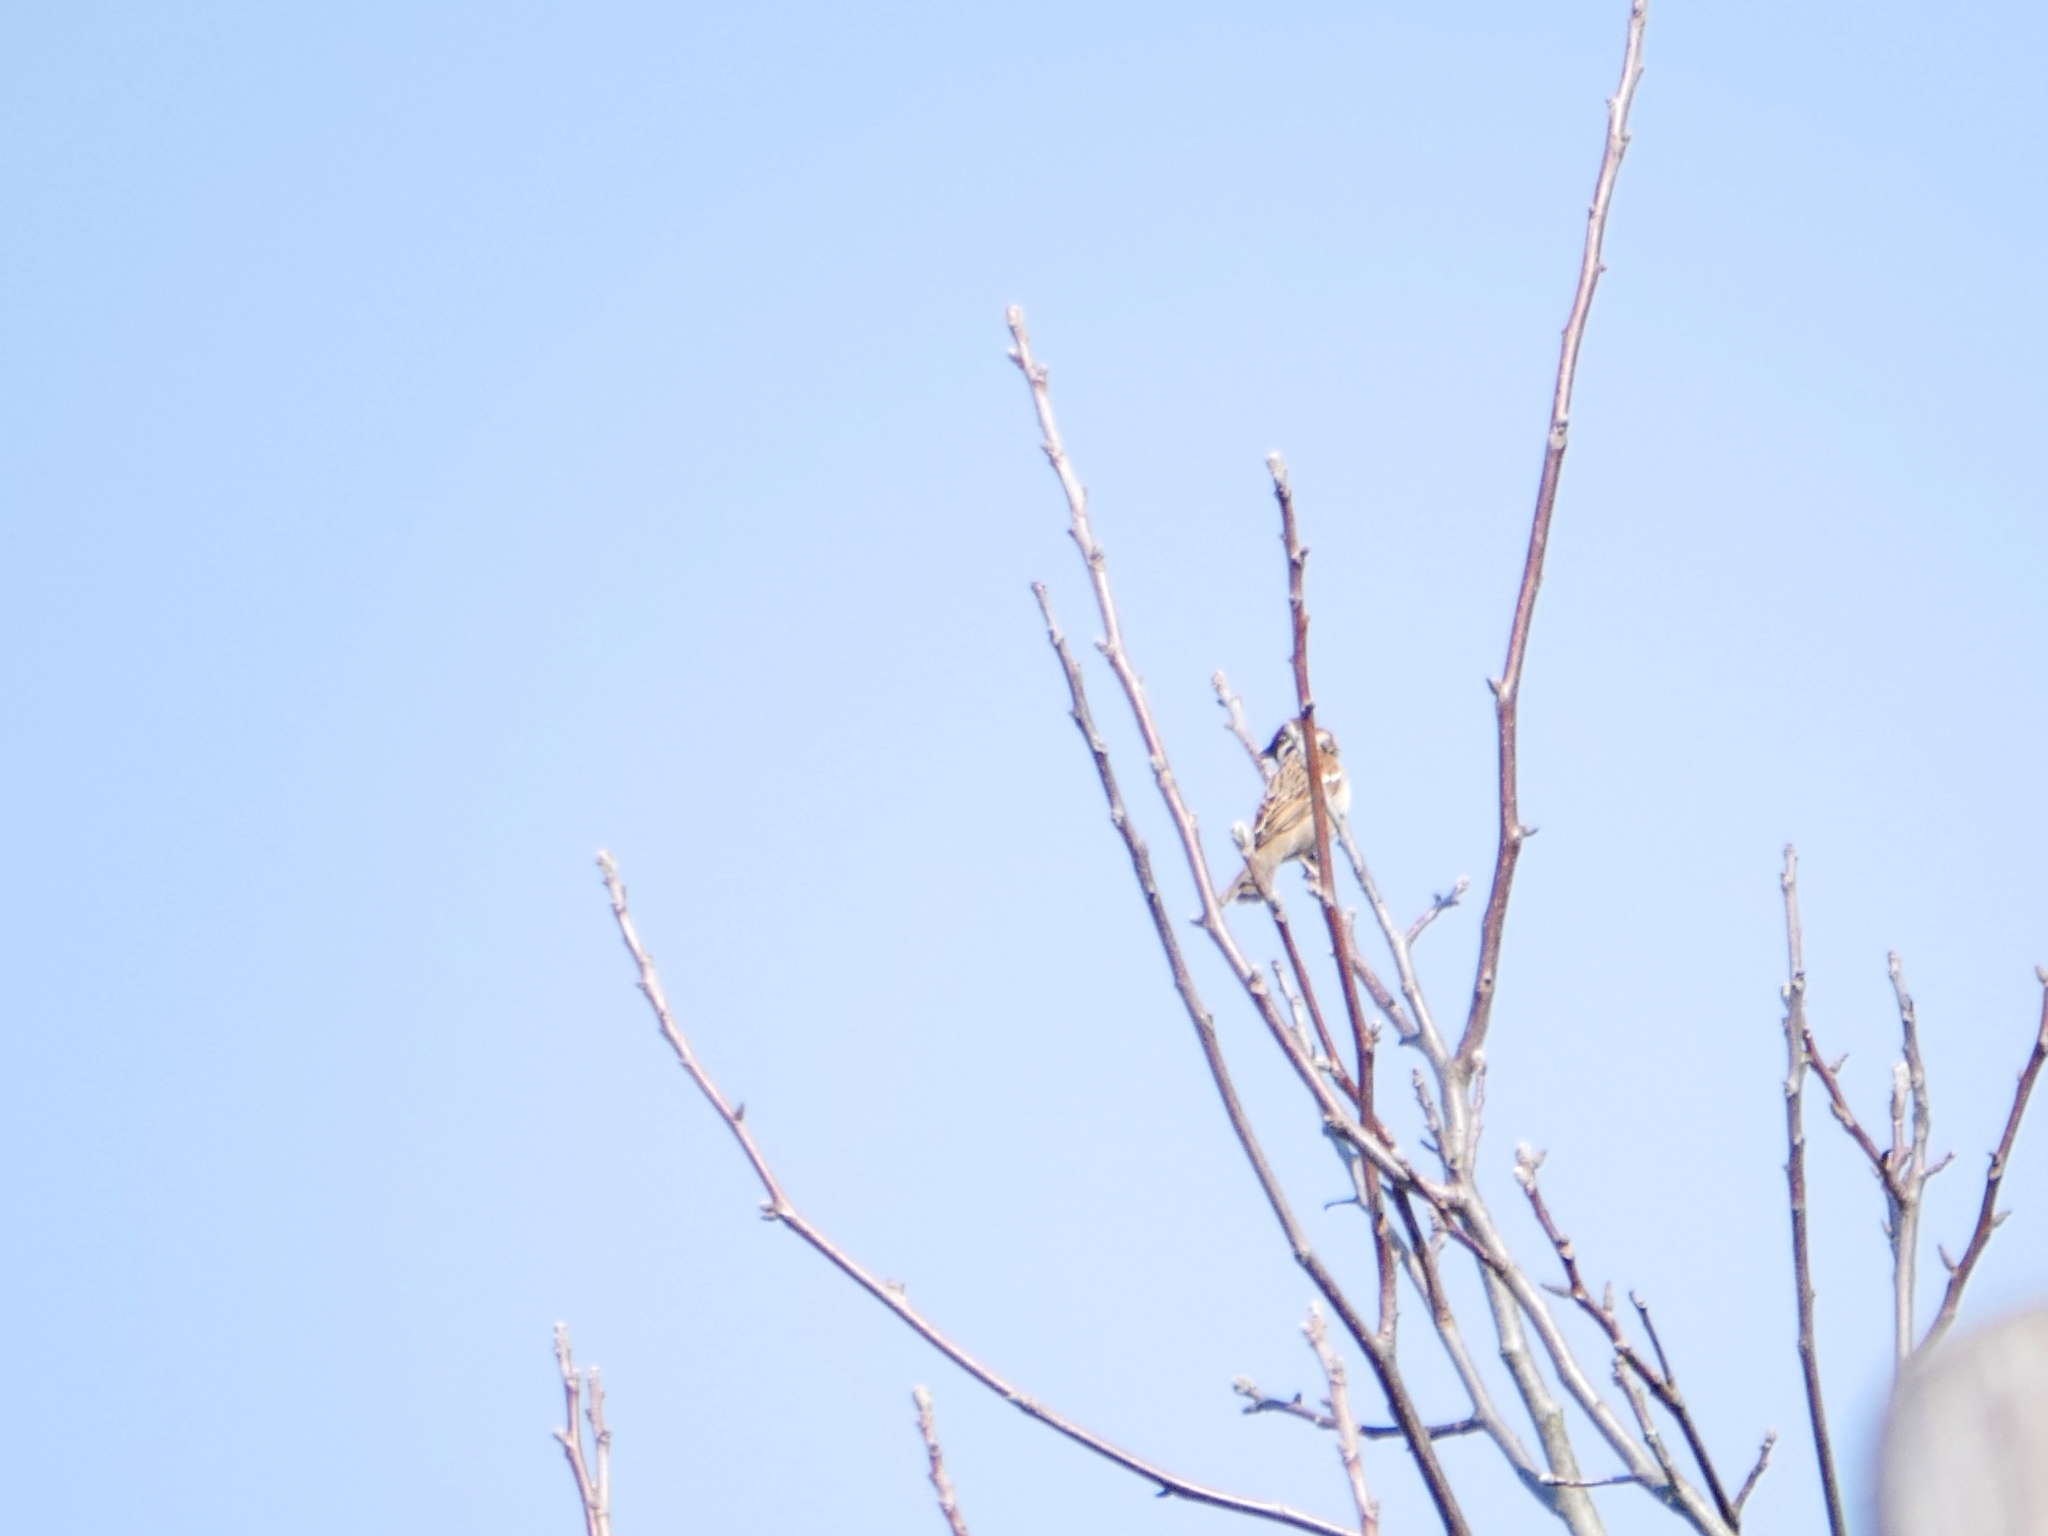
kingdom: Animalia
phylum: Chordata
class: Aves
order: Passeriformes
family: Passeridae
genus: Passer
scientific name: Passer montanus
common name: Eurasian tree sparrow
